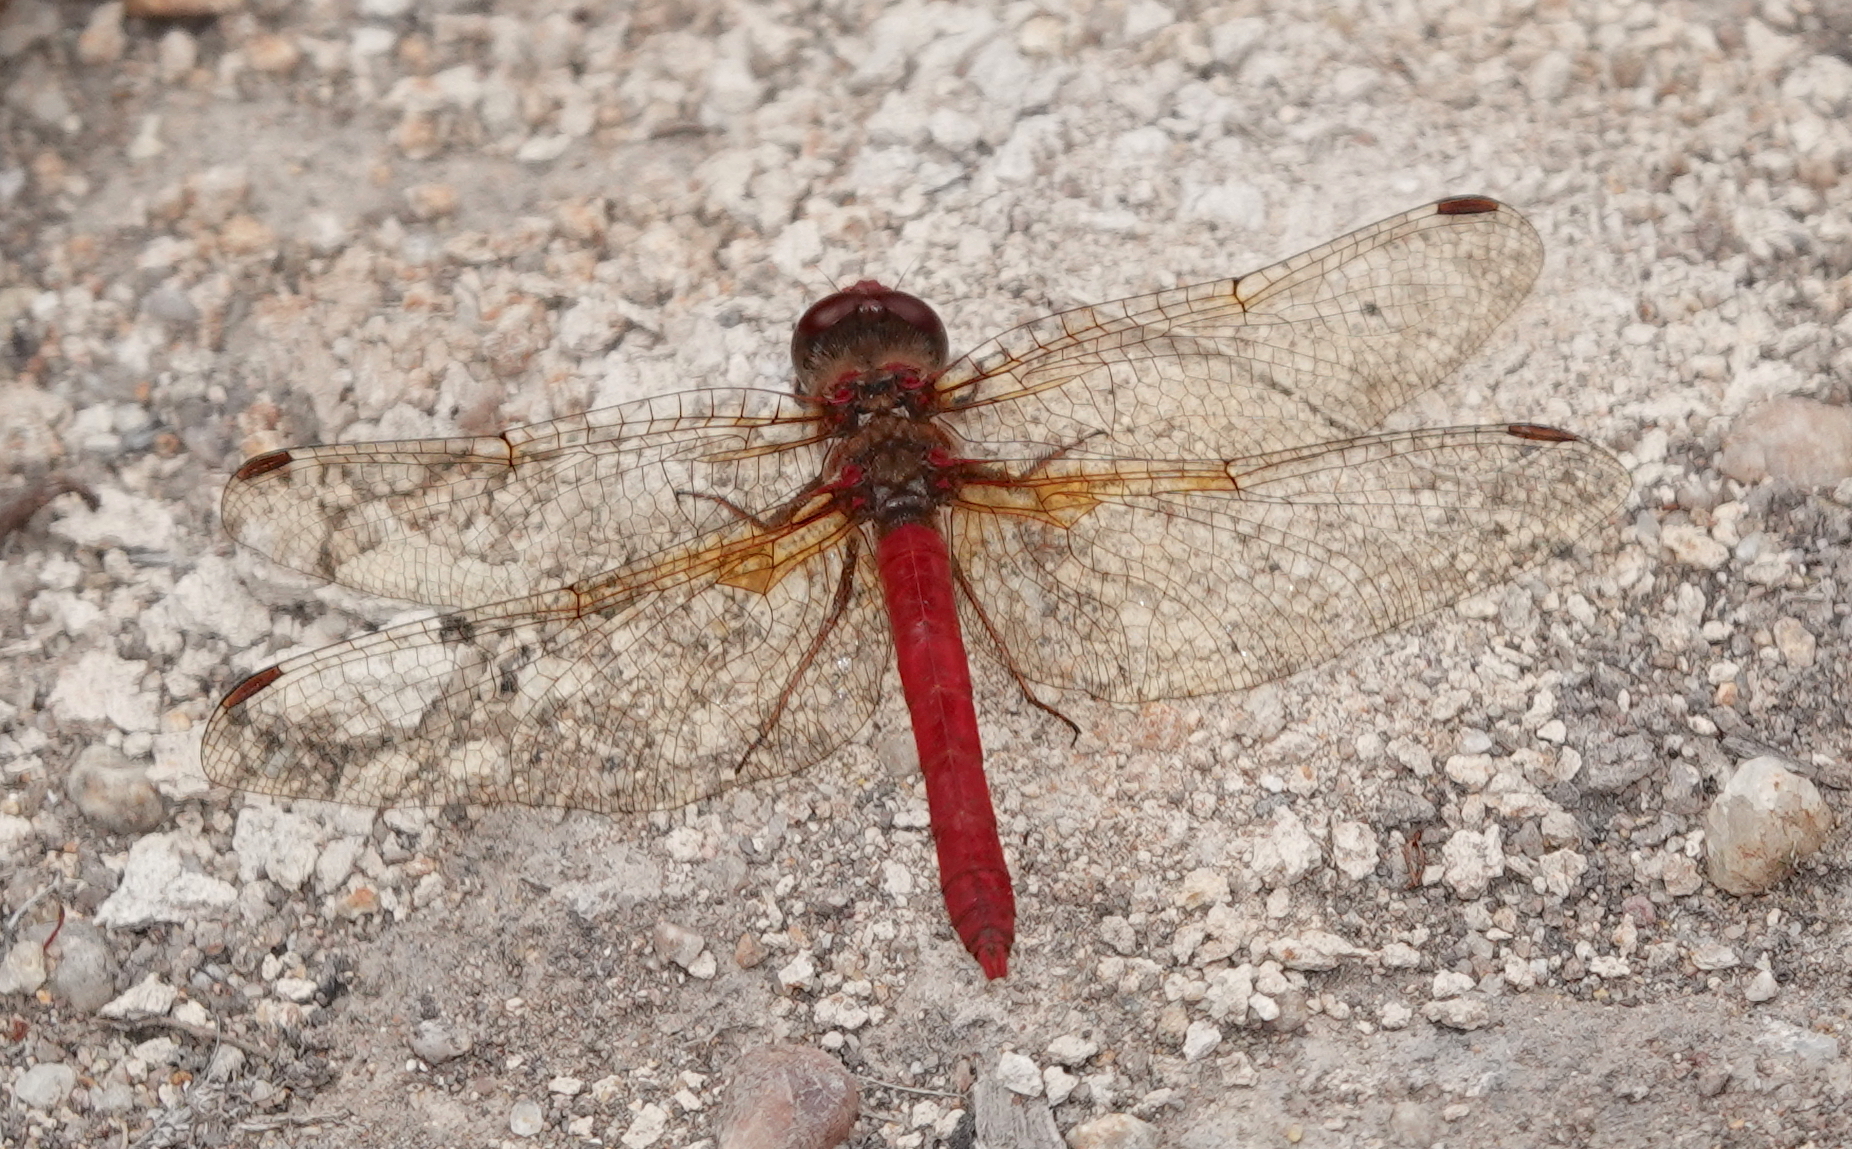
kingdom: Animalia
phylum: Arthropoda
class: Insecta
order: Odonata
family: Libellulidae
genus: Sympetrum
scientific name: Sympetrum gilvum
